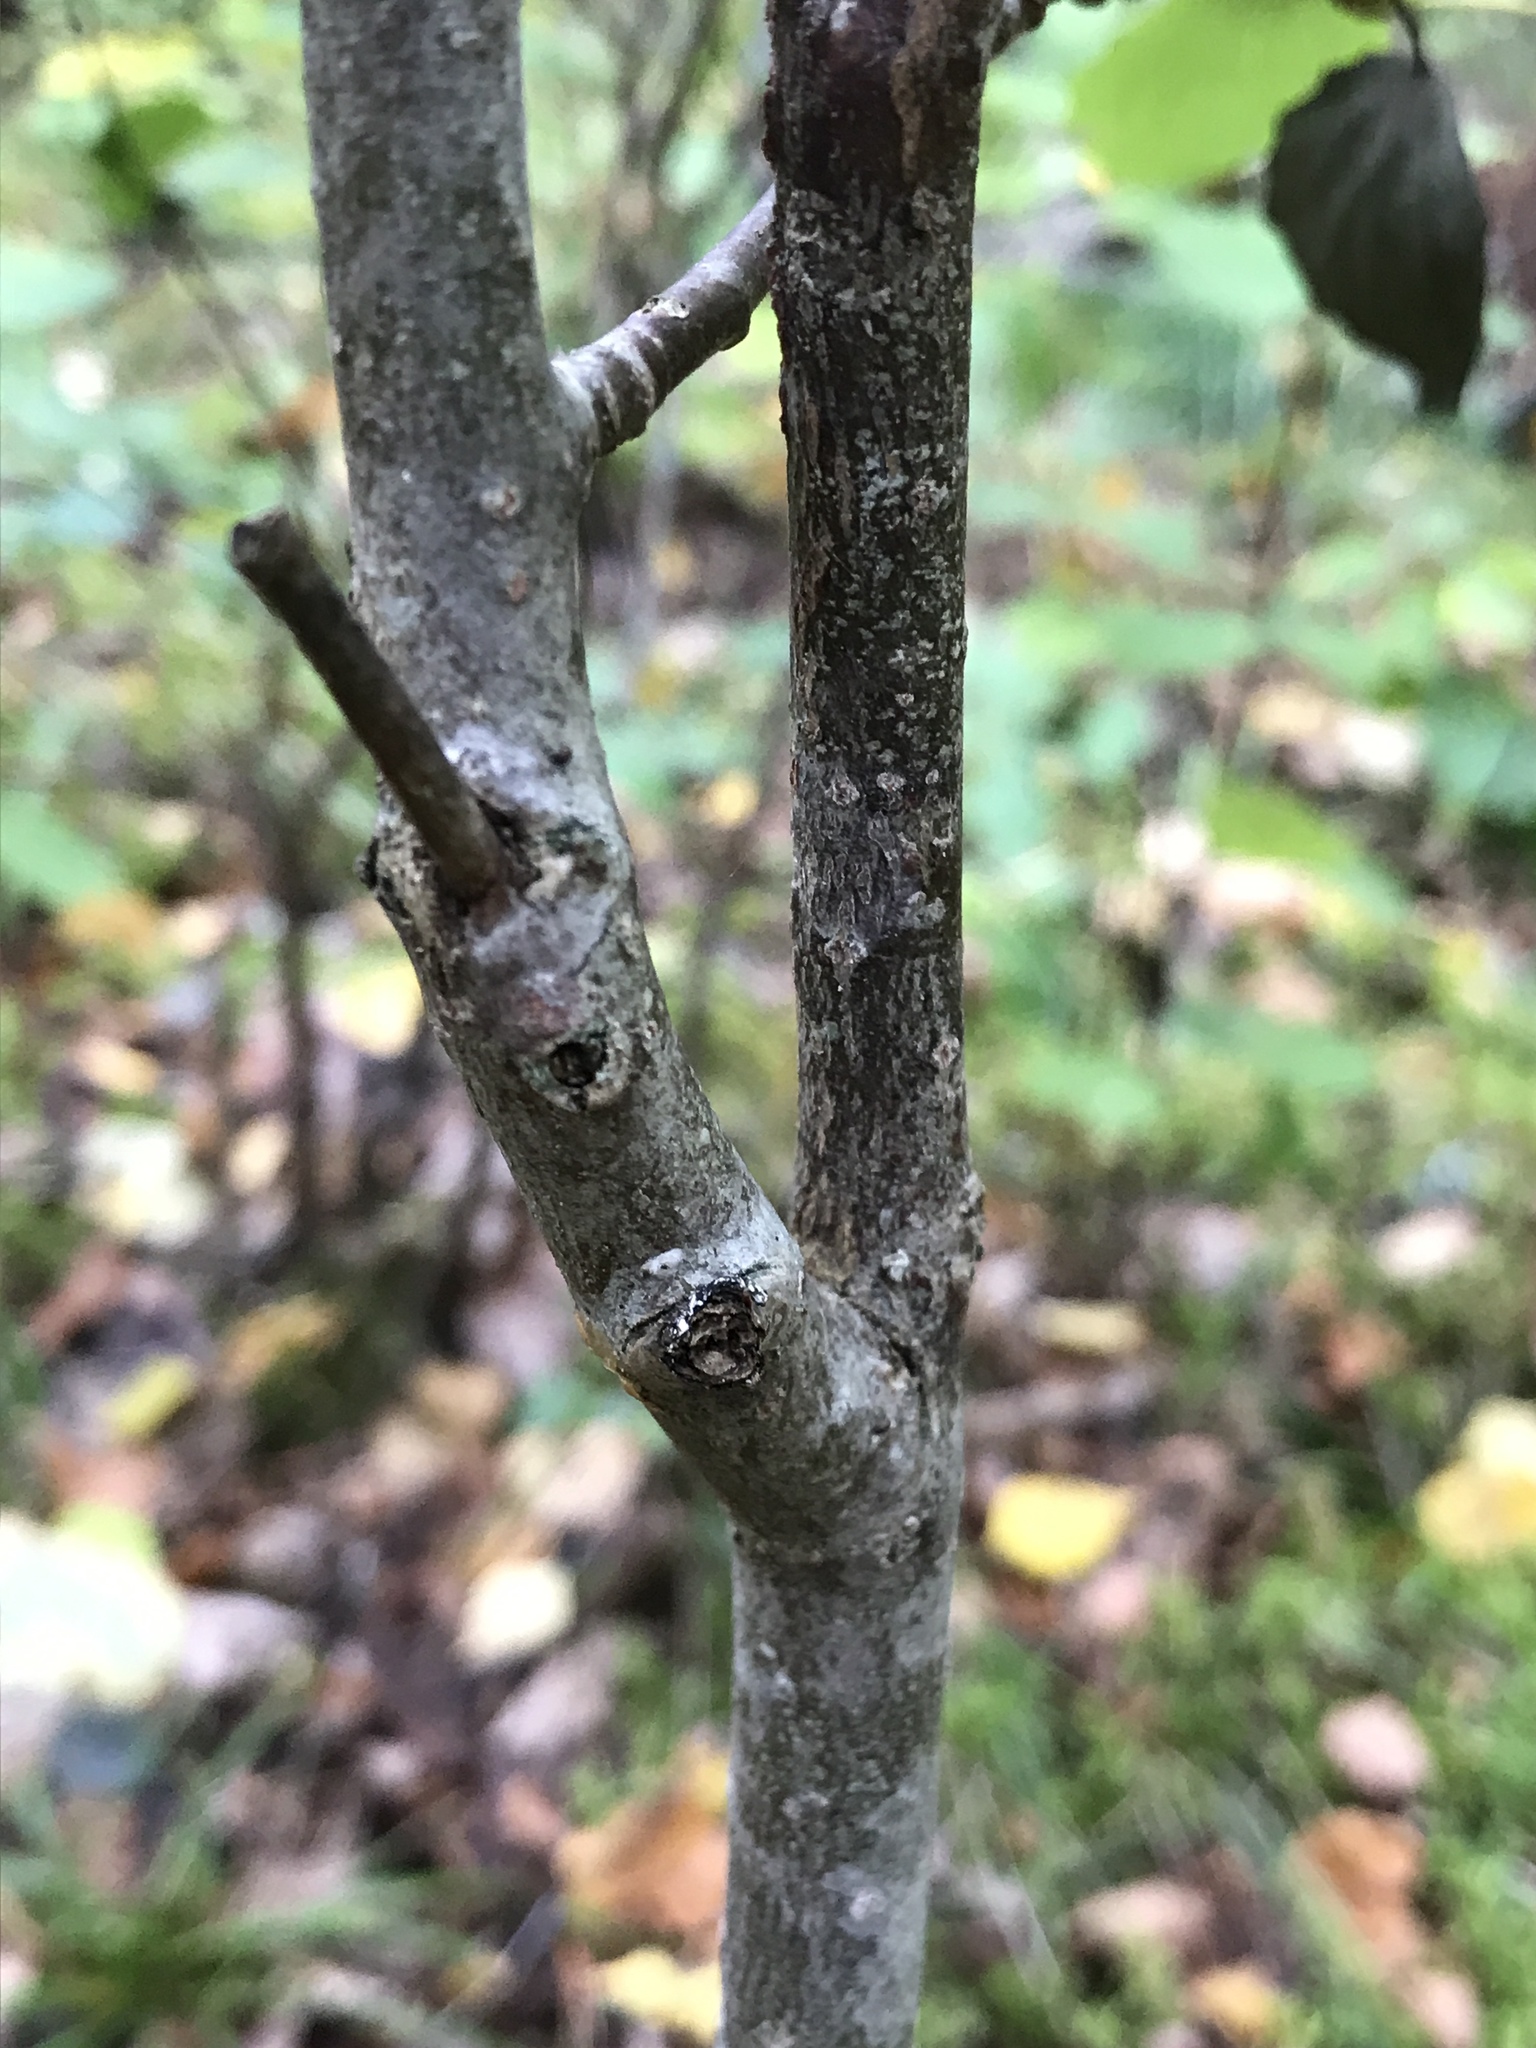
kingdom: Plantae
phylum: Tracheophyta
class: Magnoliopsida
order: Malpighiales
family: Salicaceae
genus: Populus
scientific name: Populus tremula
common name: European aspen
